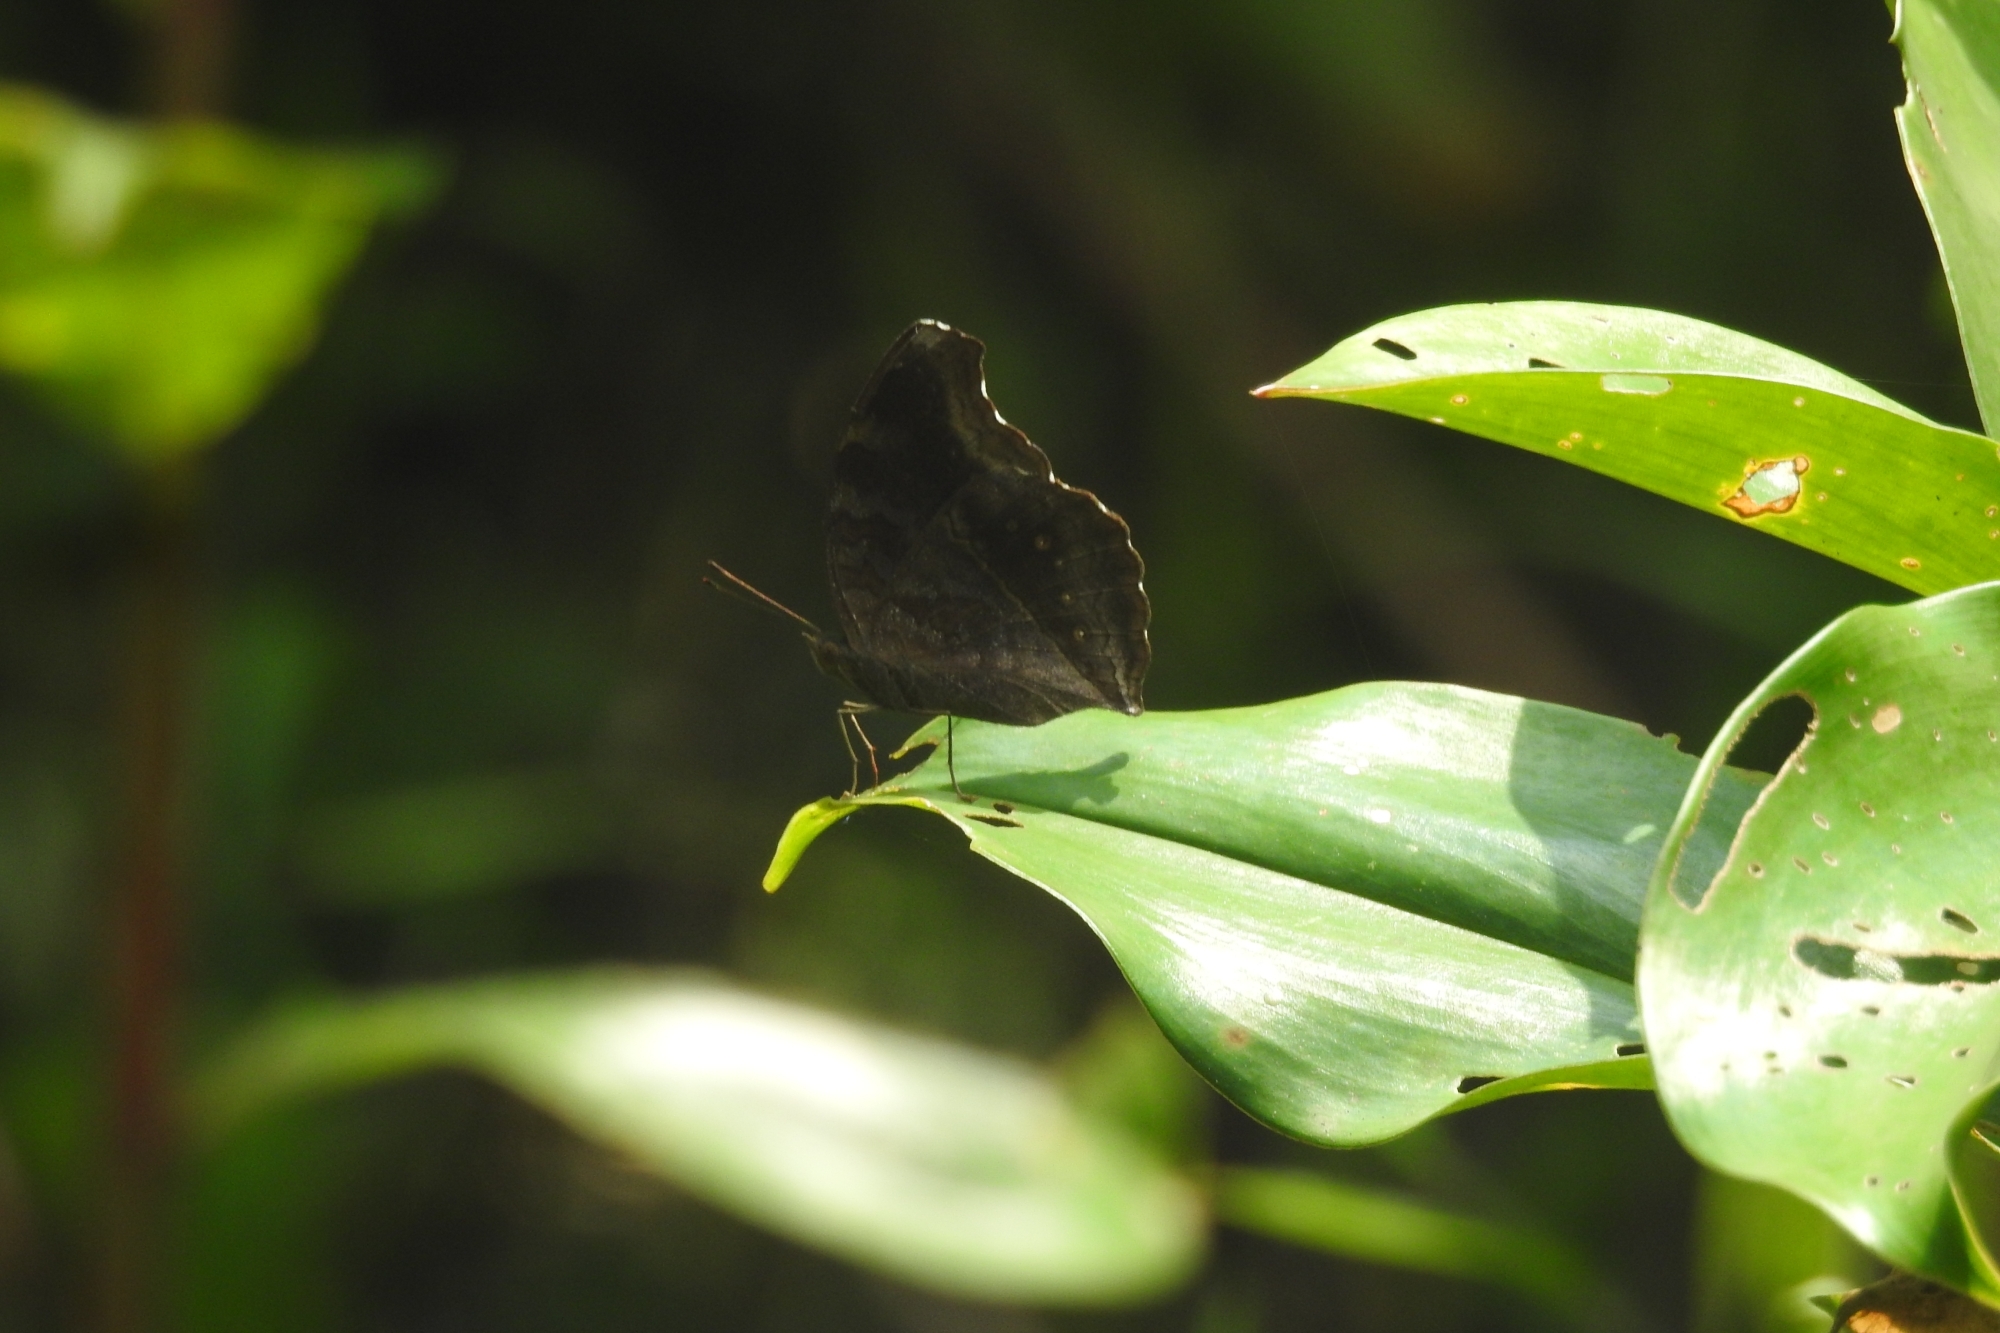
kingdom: Animalia
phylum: Arthropoda
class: Insecta
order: Lepidoptera
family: Nymphalidae
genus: Junonia
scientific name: Junonia iphita
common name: Chocolate pansy
